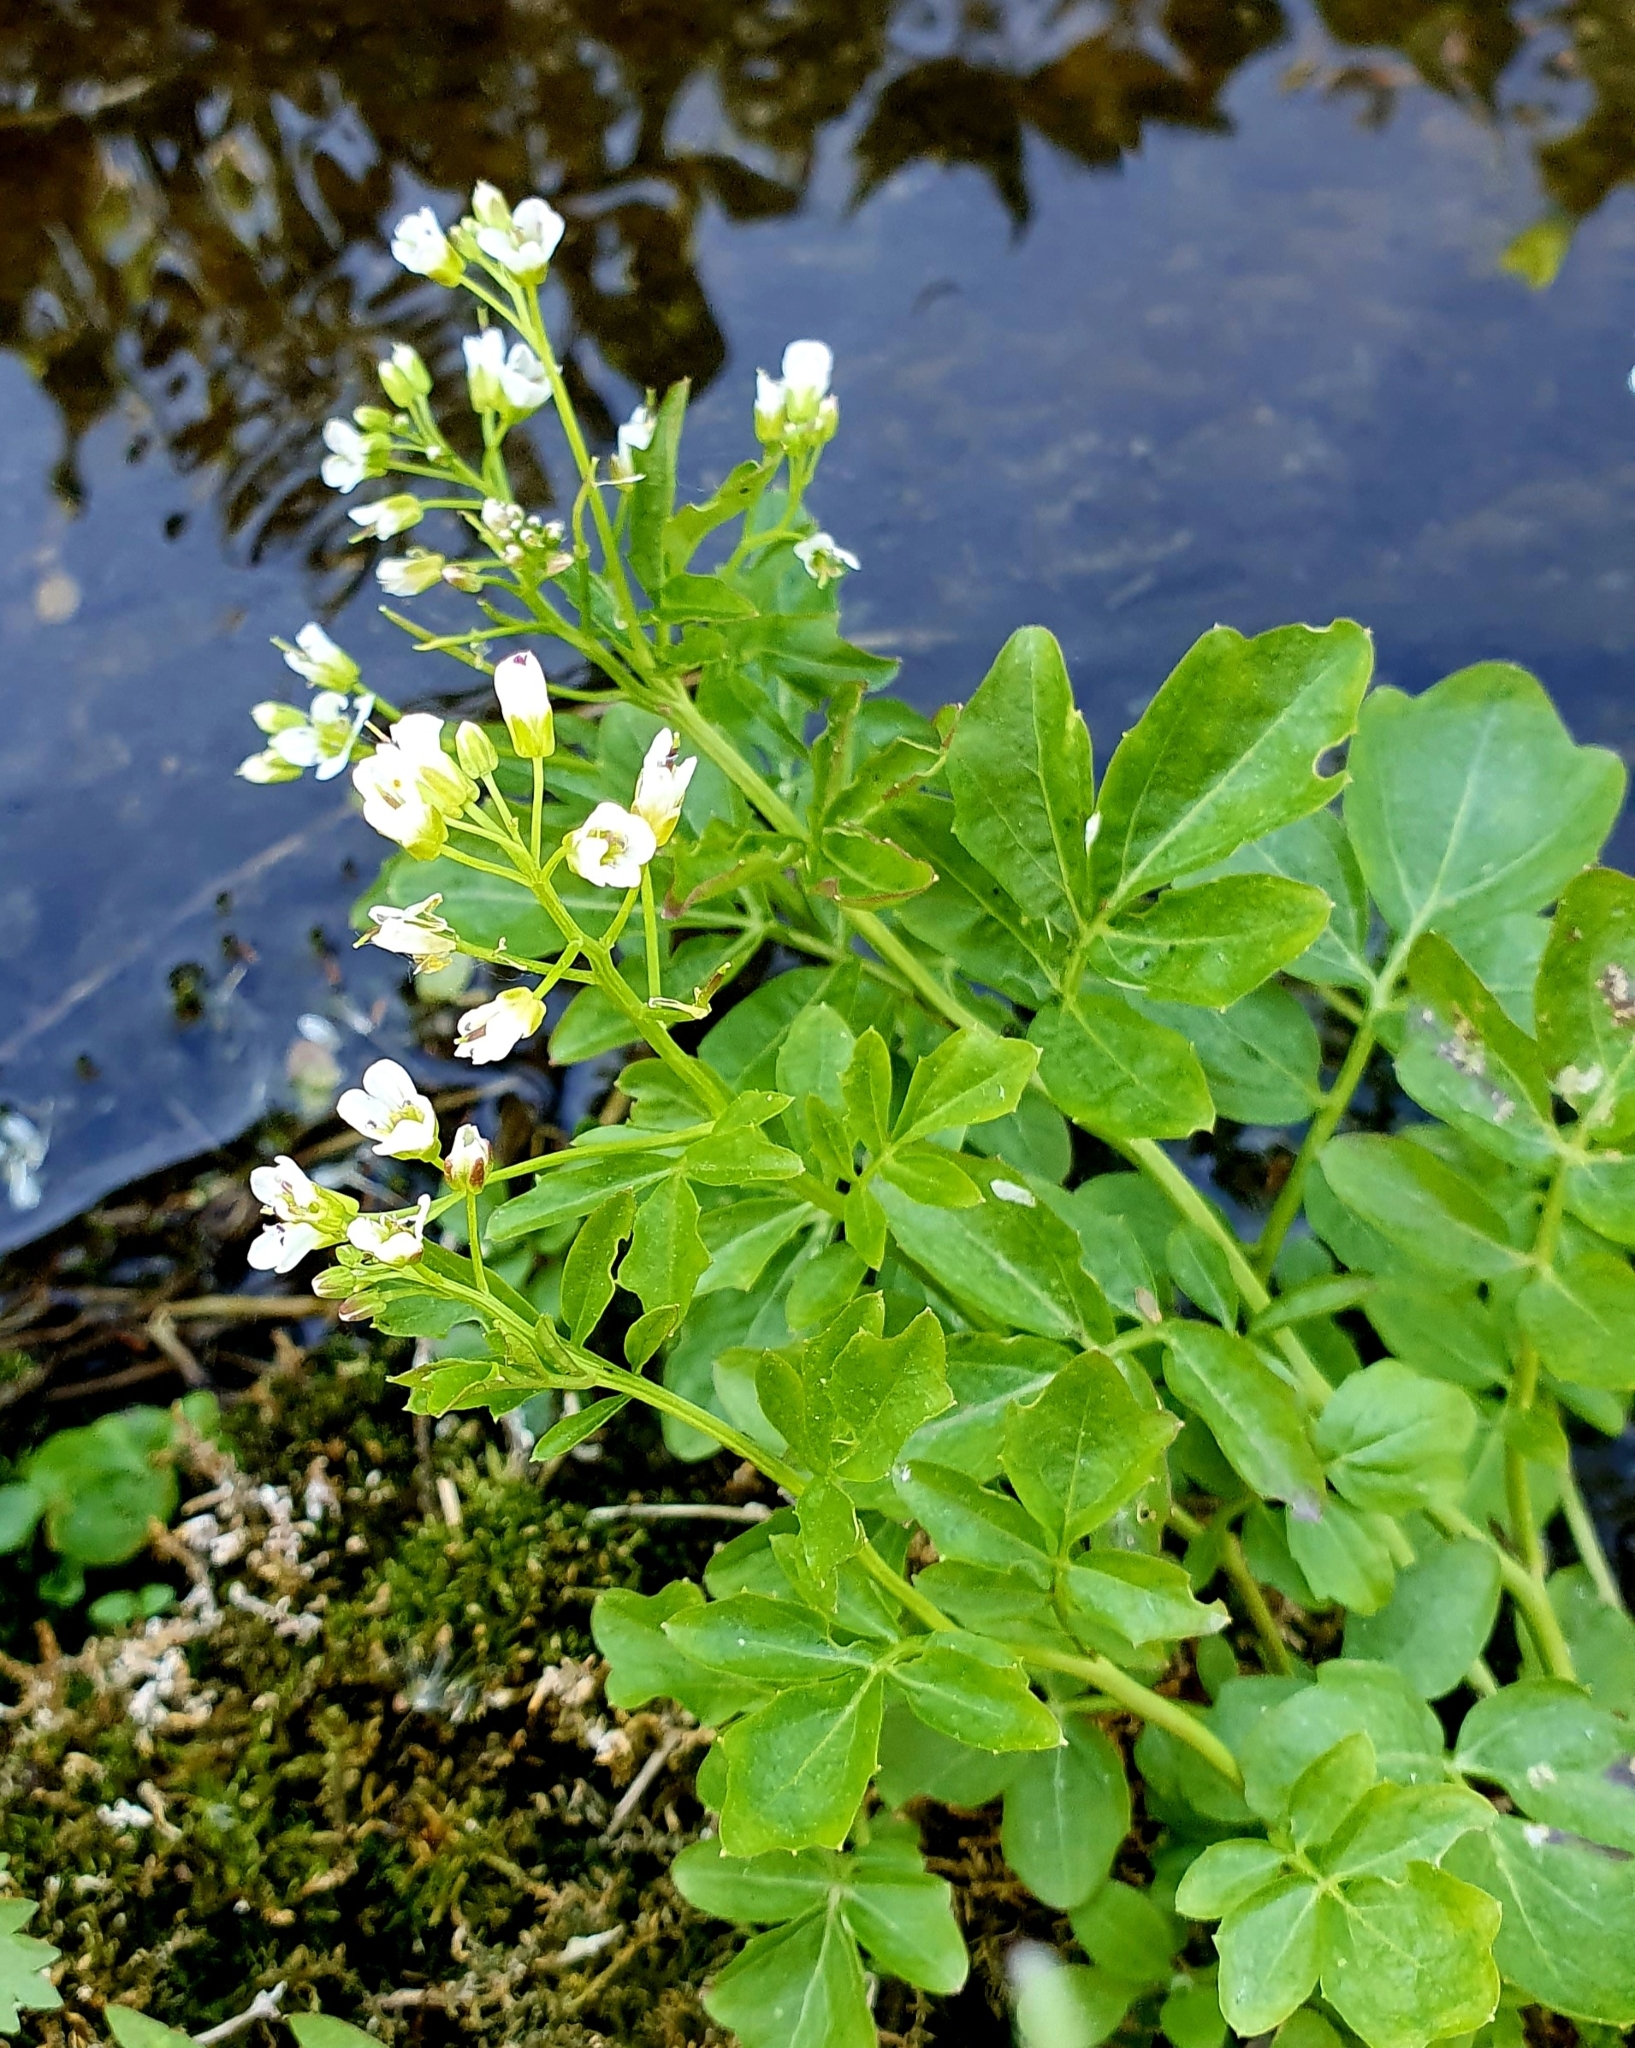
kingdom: Plantae
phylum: Tracheophyta
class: Magnoliopsida
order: Brassicales
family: Brassicaceae
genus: Cardamine
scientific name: Cardamine amara
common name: Large bitter-cress
